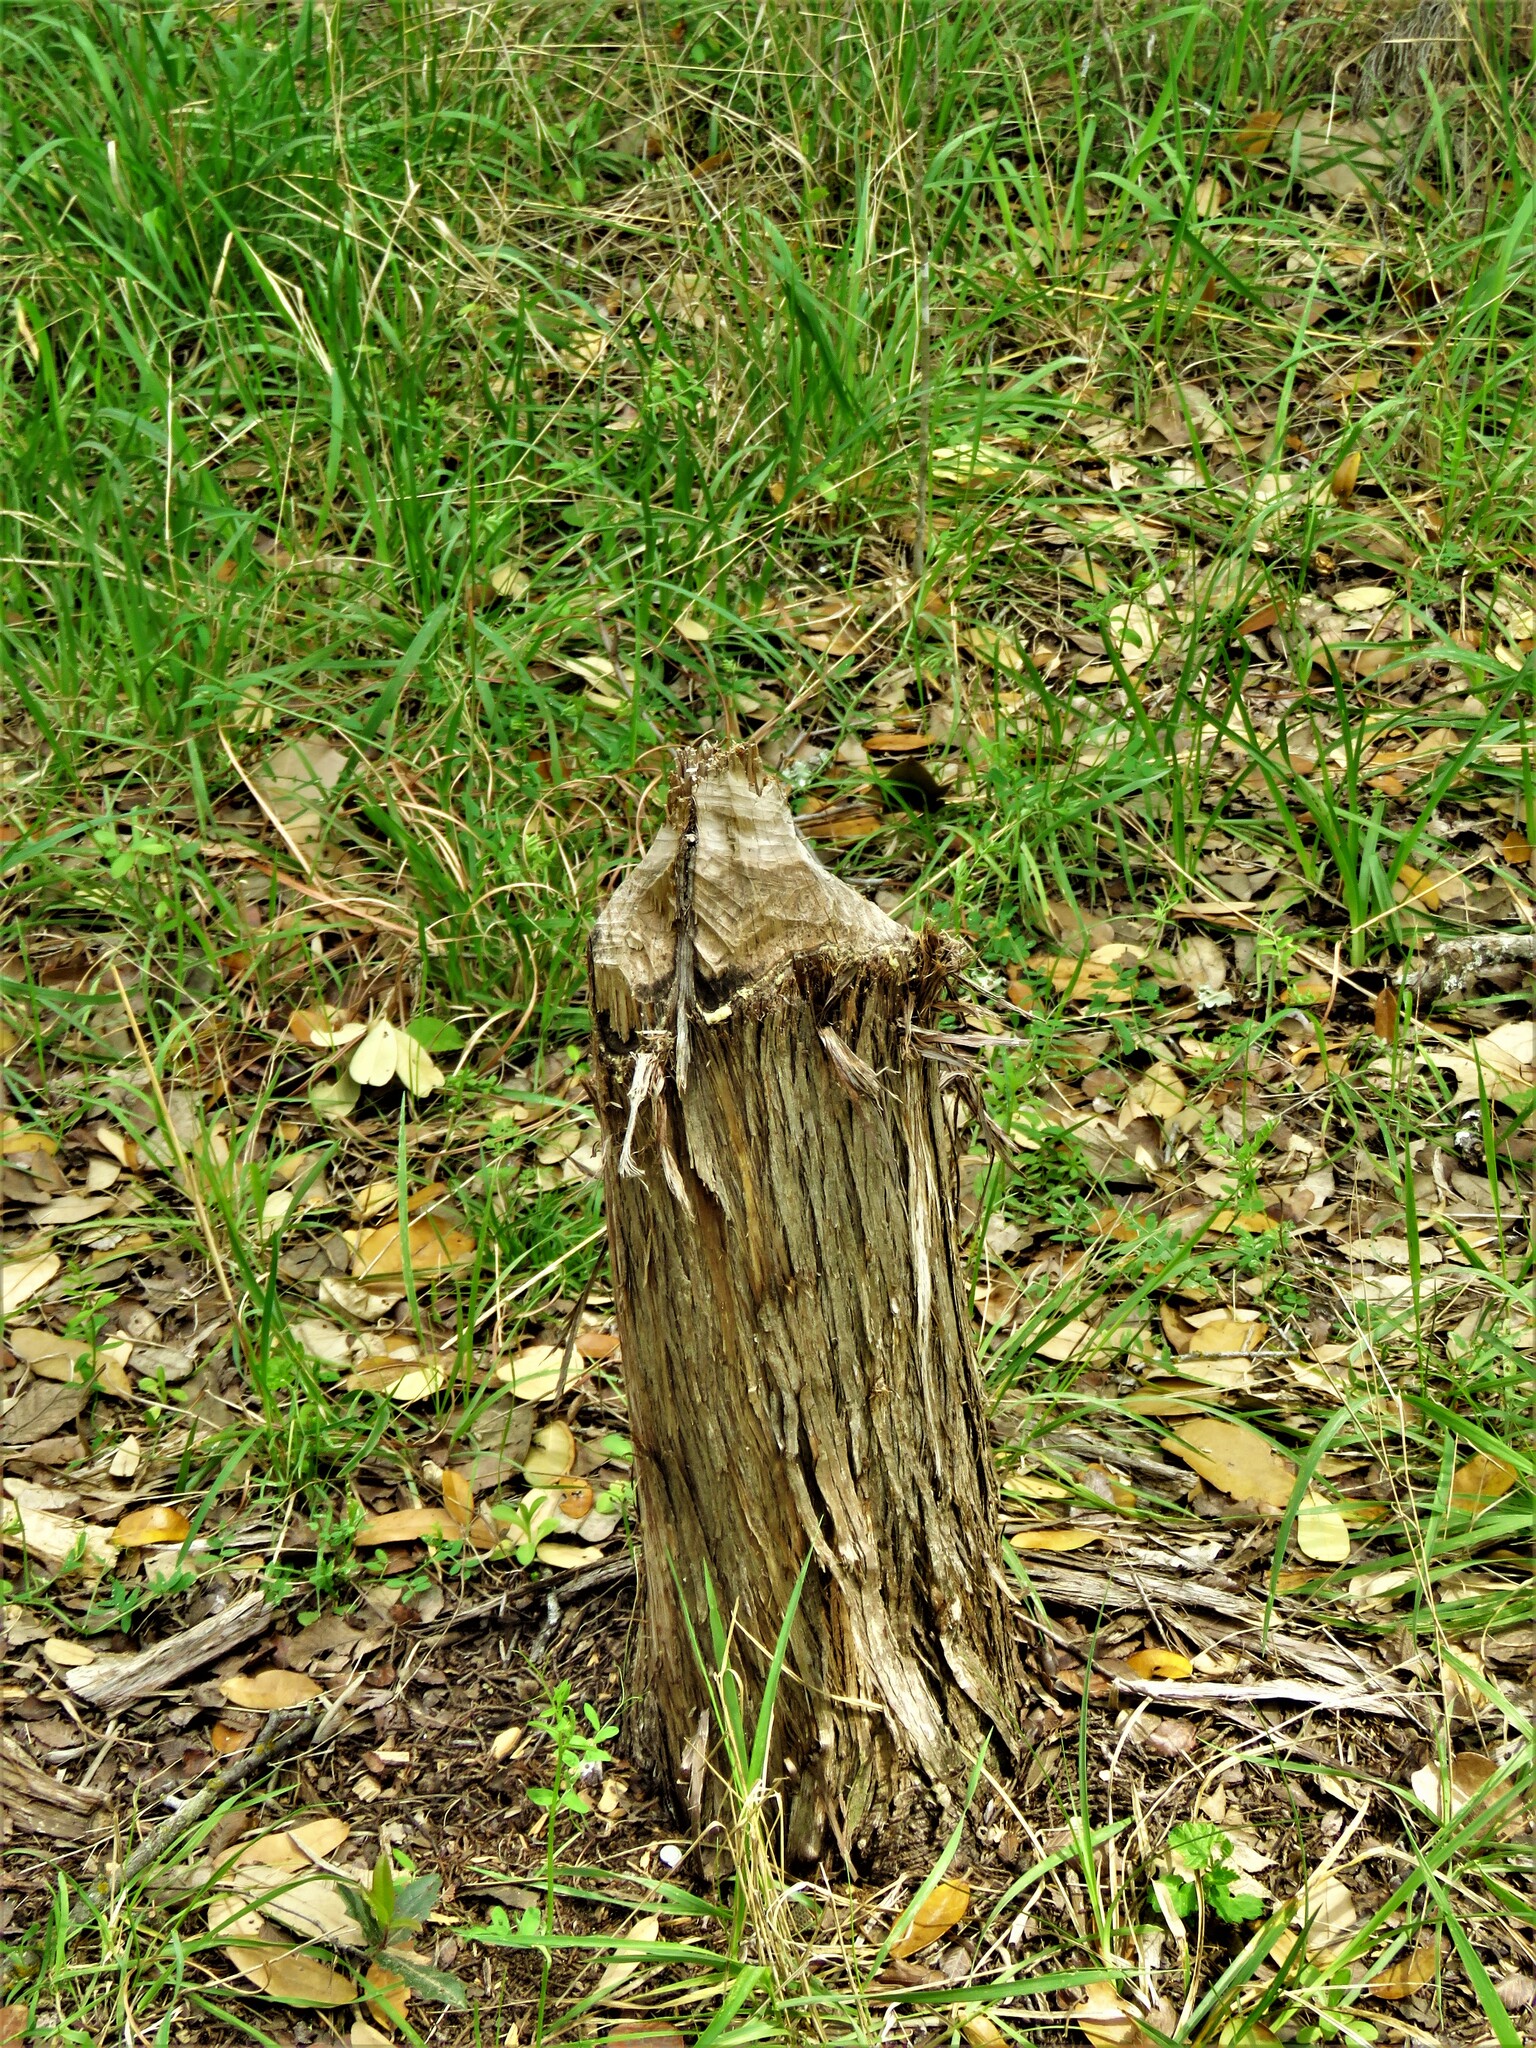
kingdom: Animalia
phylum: Chordata
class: Mammalia
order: Rodentia
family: Castoridae
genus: Castor
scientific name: Castor canadensis
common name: American beaver
